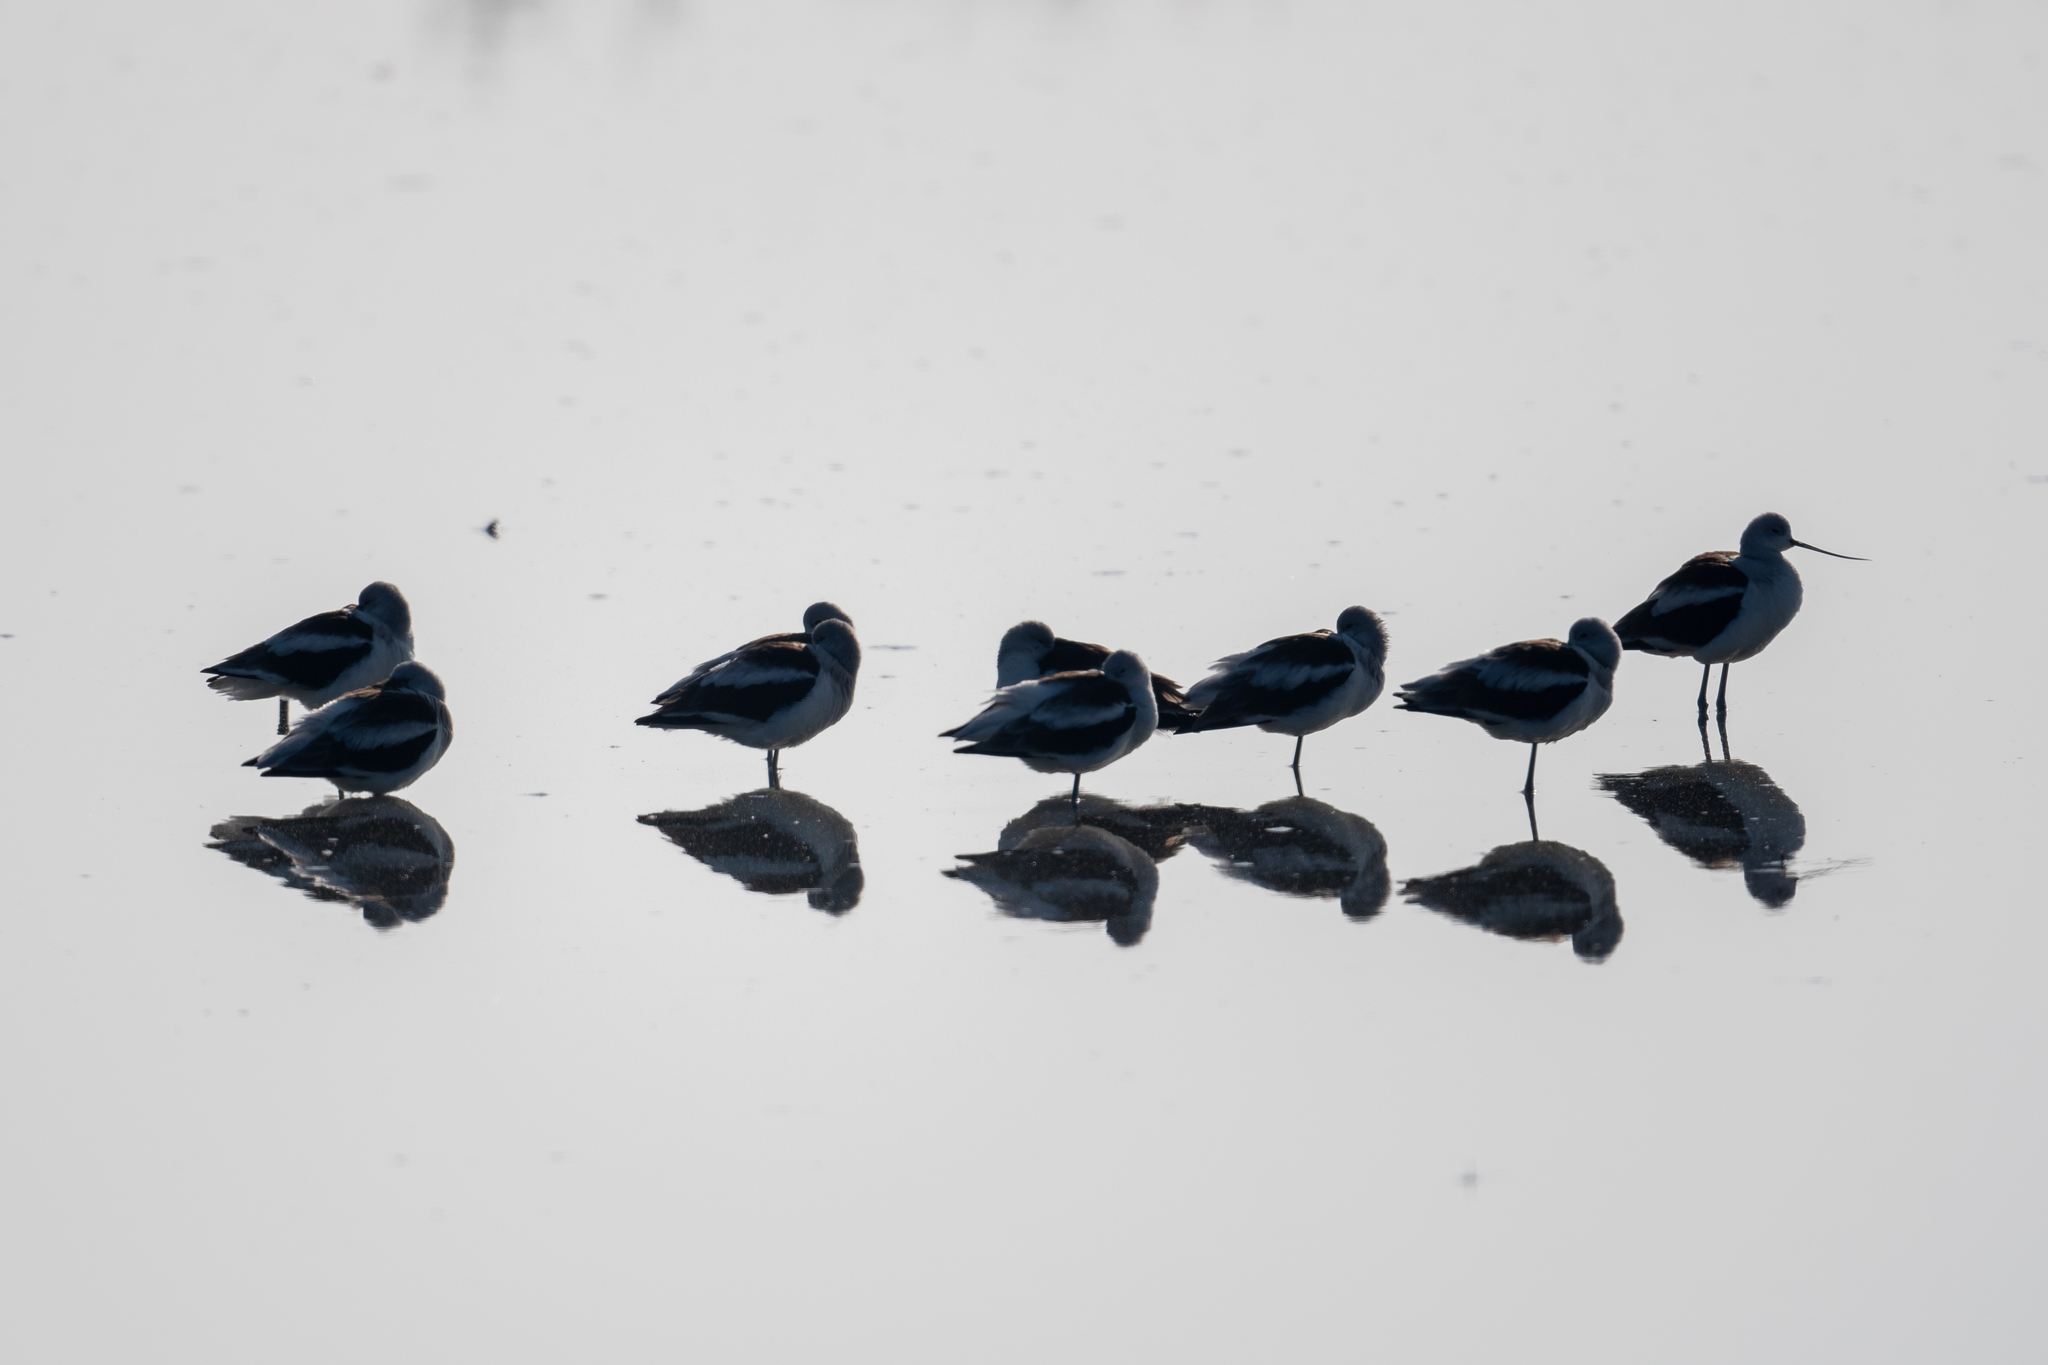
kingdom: Animalia
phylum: Chordata
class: Aves
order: Charadriiformes
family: Recurvirostridae
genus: Recurvirostra
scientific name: Recurvirostra americana
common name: American avocet
